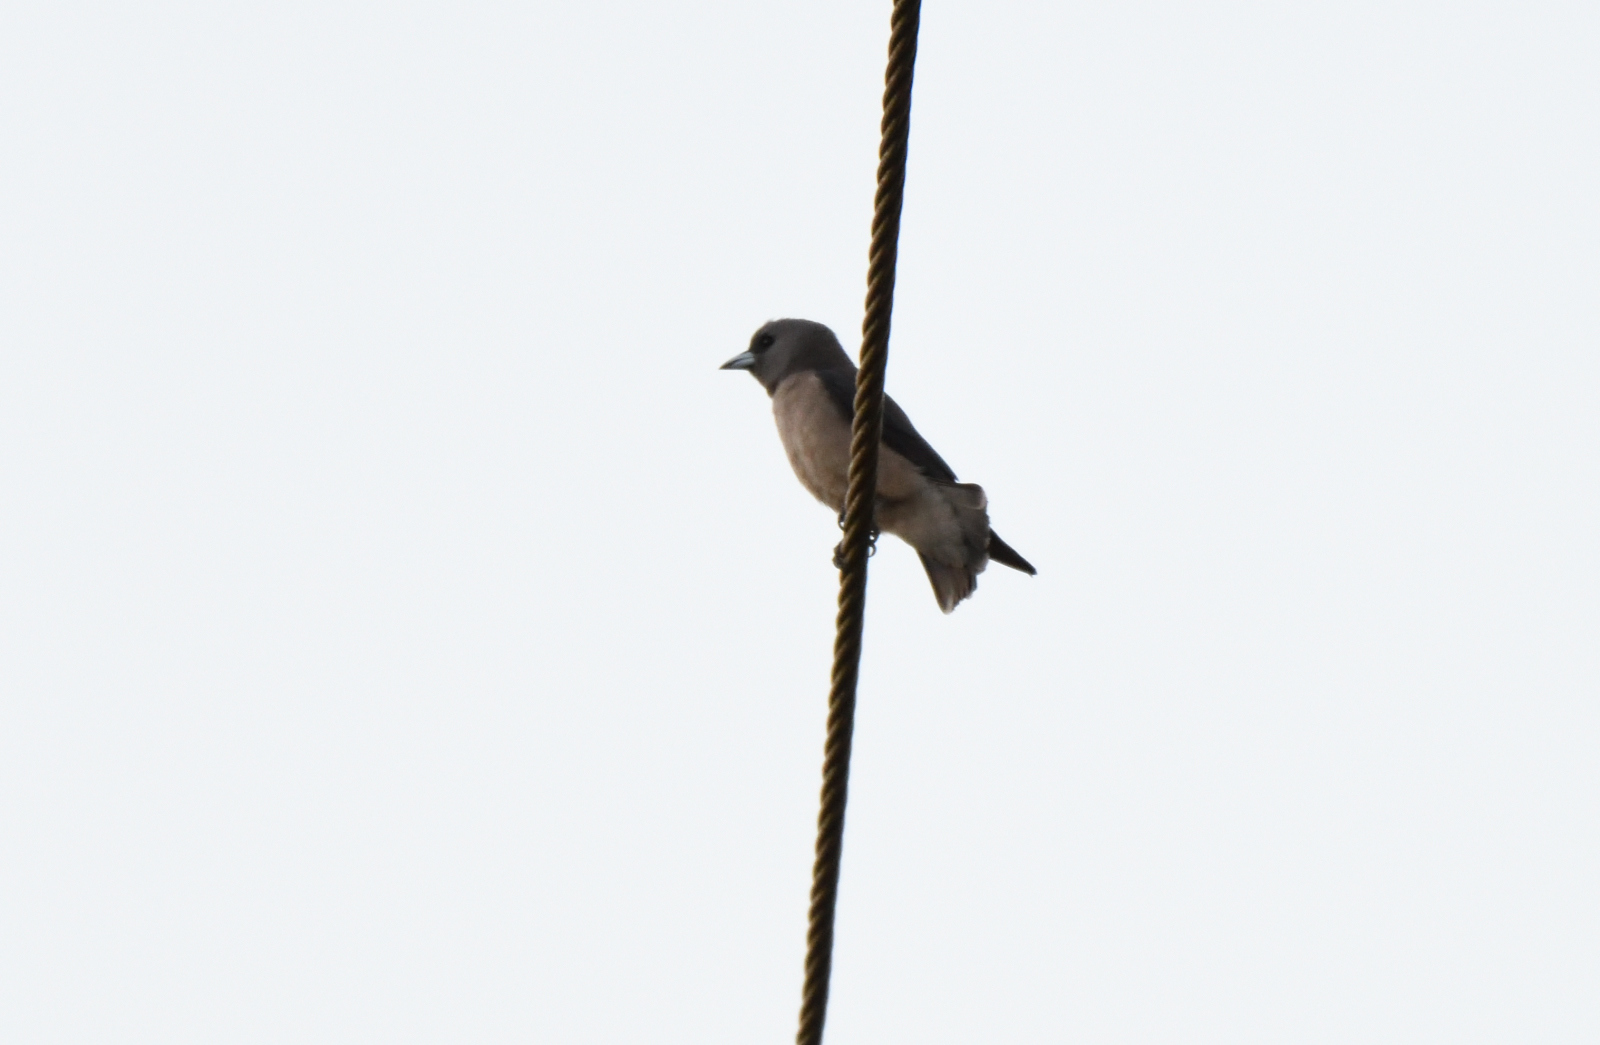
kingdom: Animalia
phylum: Chordata
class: Aves
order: Passeriformes
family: Artamidae
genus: Artamus
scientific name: Artamus fuscus
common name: Ashy woodswallow
